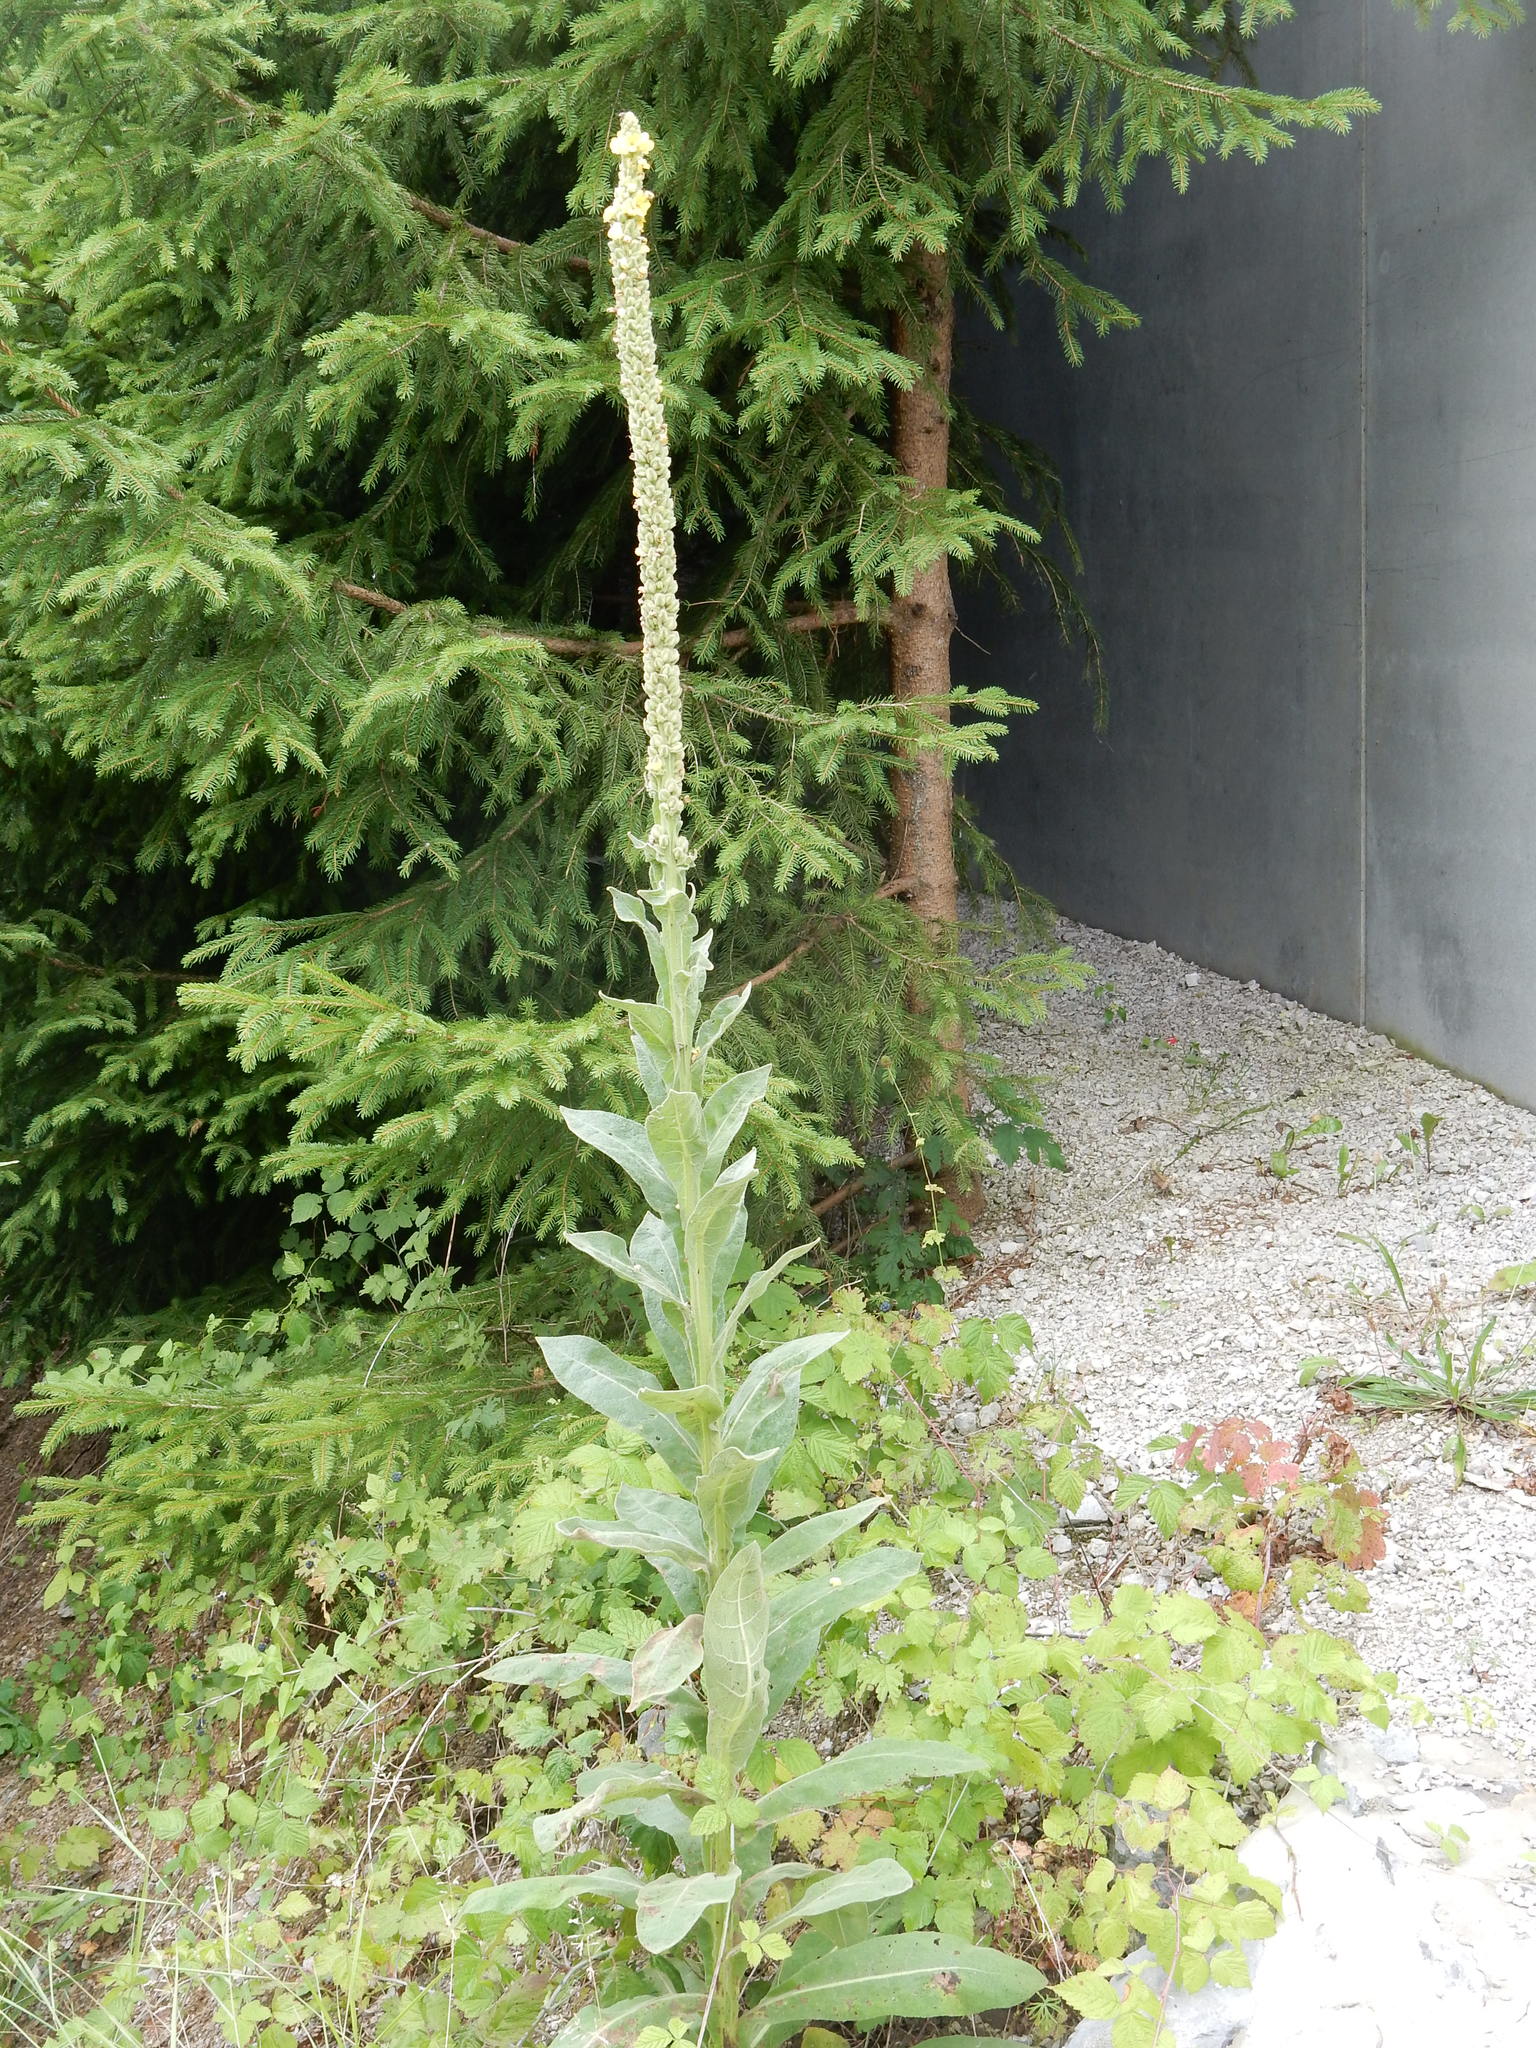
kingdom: Plantae
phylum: Tracheophyta
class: Magnoliopsida
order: Lamiales
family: Scrophulariaceae
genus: Verbascum
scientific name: Verbascum thapsus
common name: Common mullein
